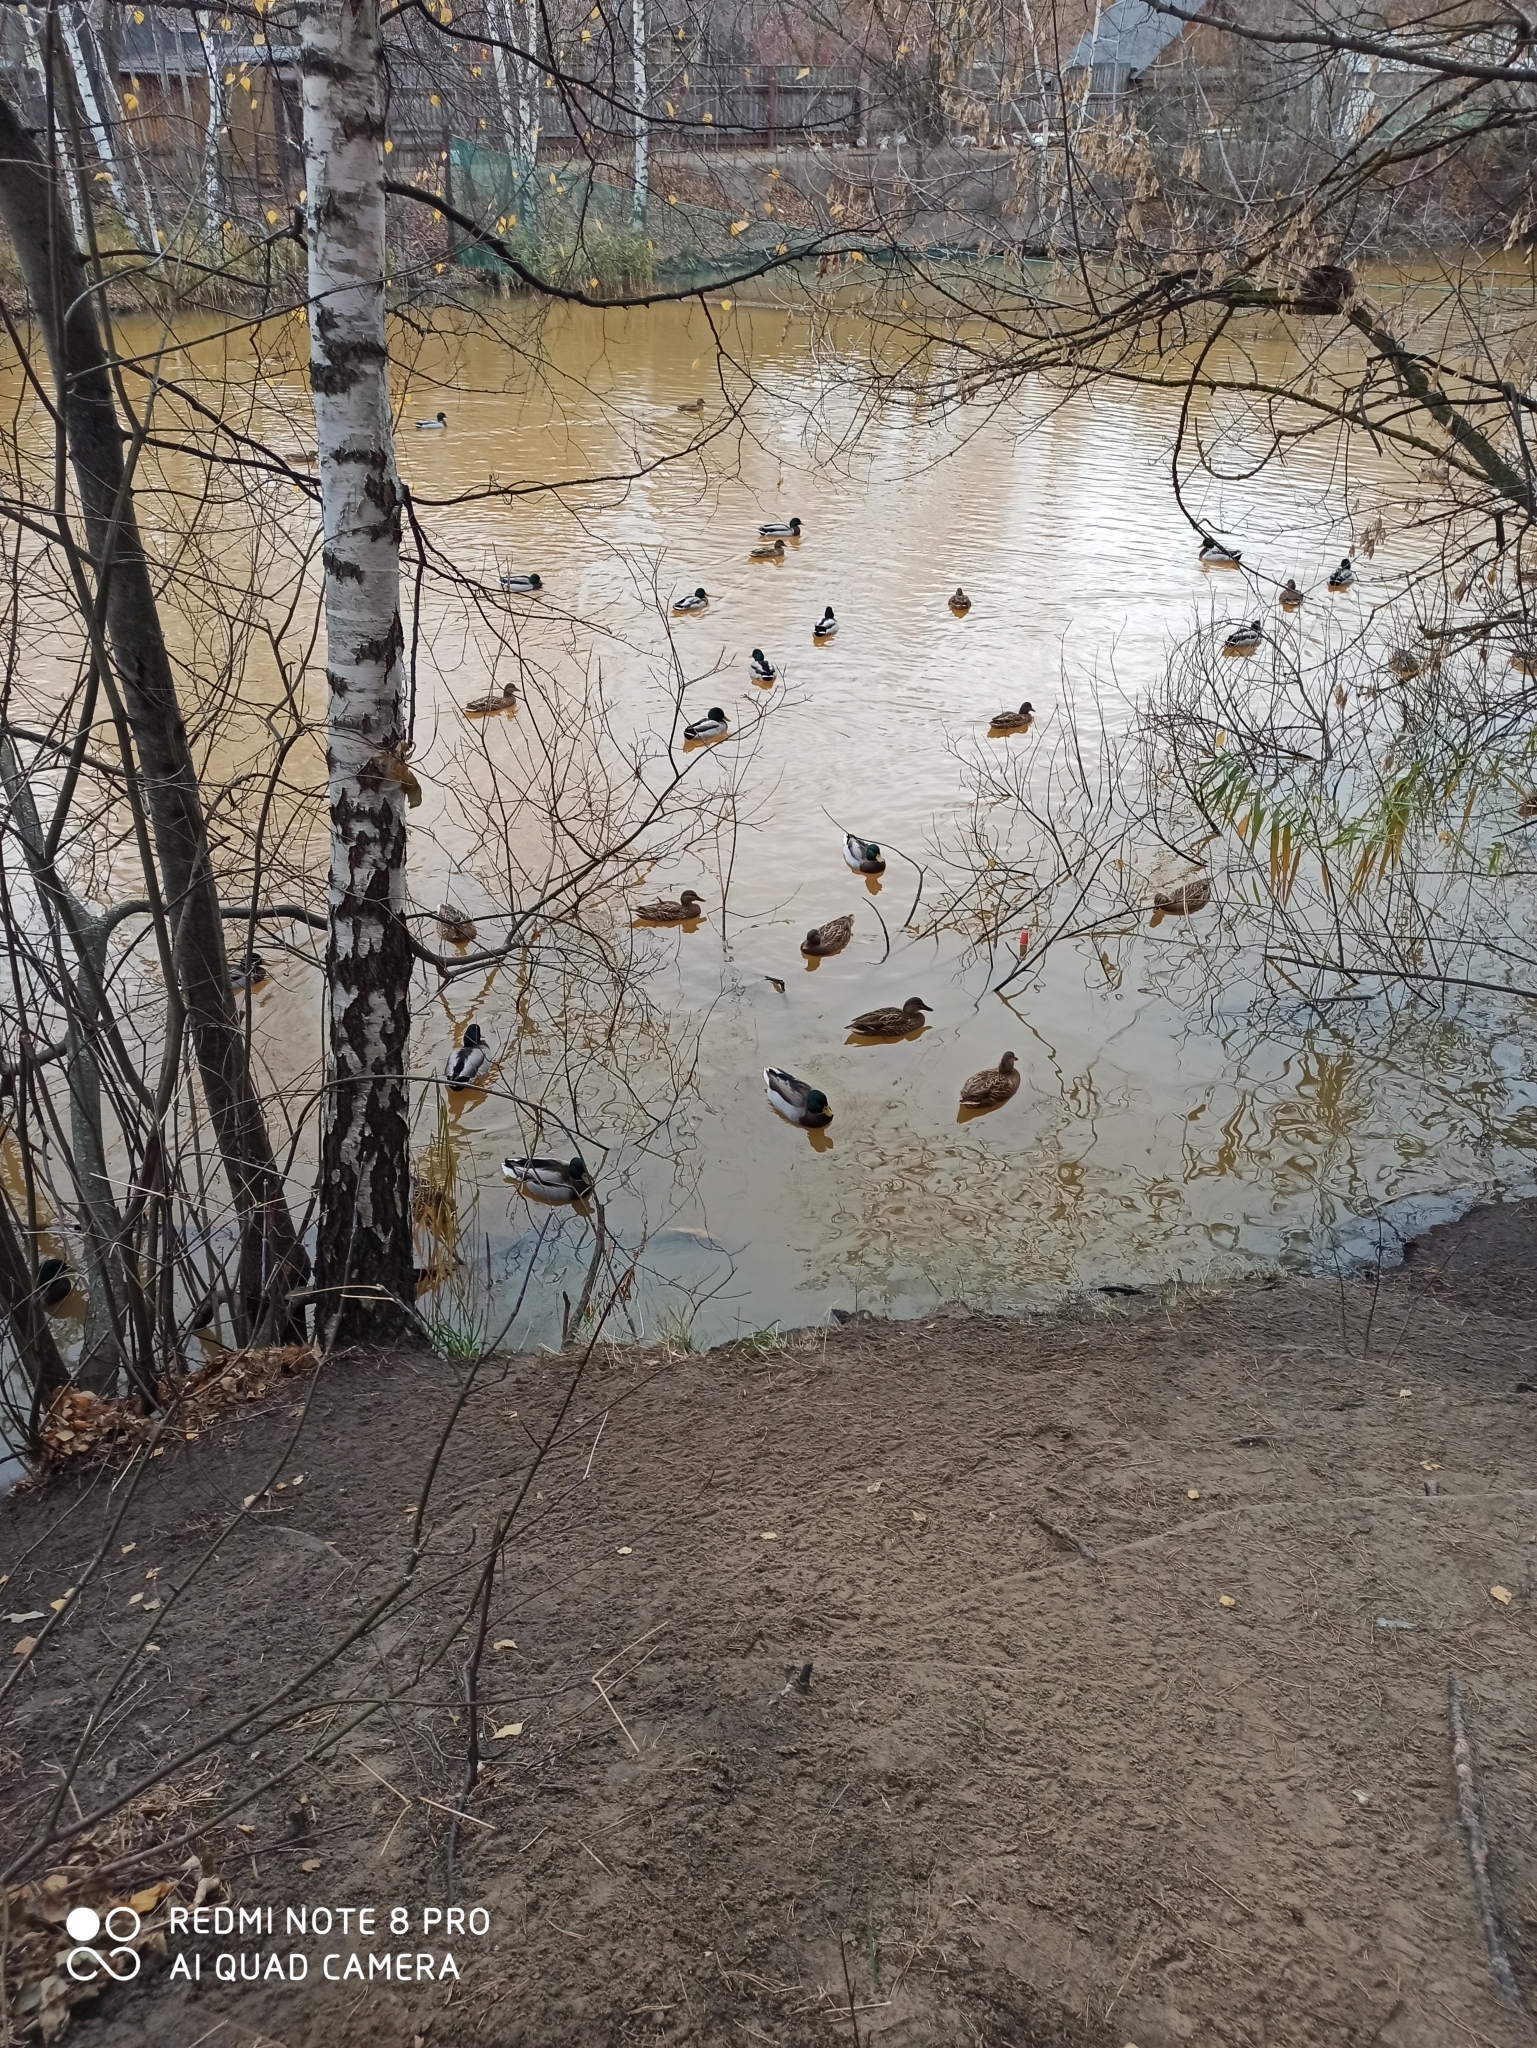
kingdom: Animalia
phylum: Chordata
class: Aves
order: Anseriformes
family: Anatidae
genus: Anas
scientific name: Anas platyrhynchos
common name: Mallard
